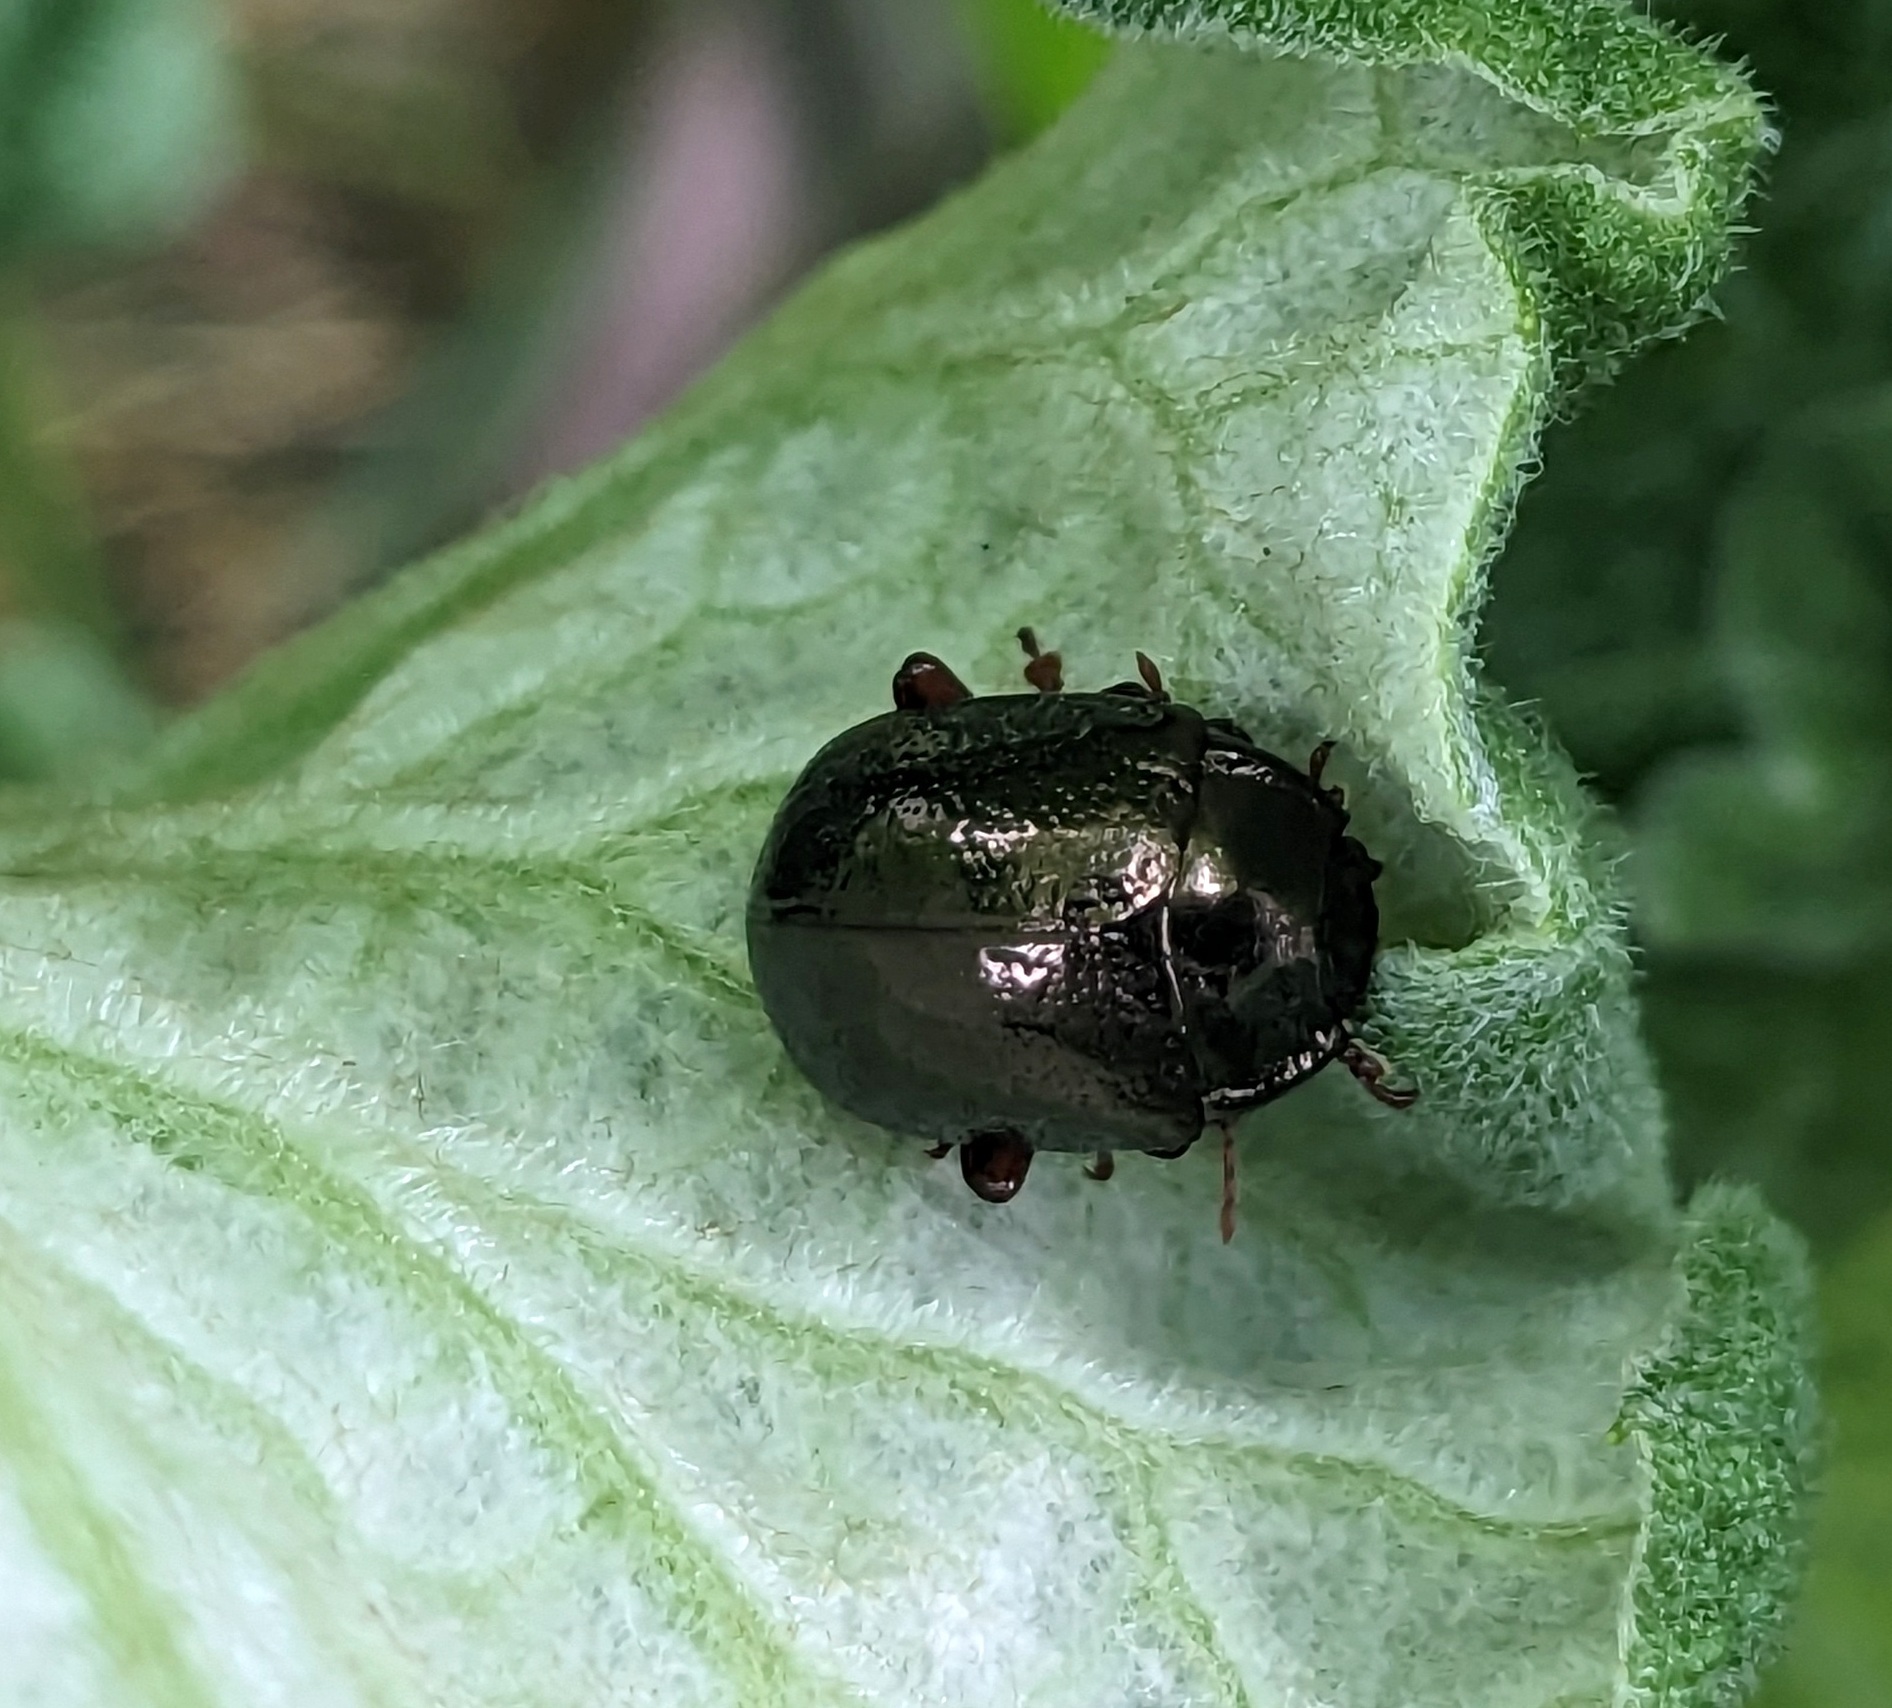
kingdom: Animalia
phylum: Arthropoda
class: Insecta
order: Coleoptera
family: Chrysomelidae
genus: Chrysolina
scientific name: Chrysolina bankii
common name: Leaf beetle
